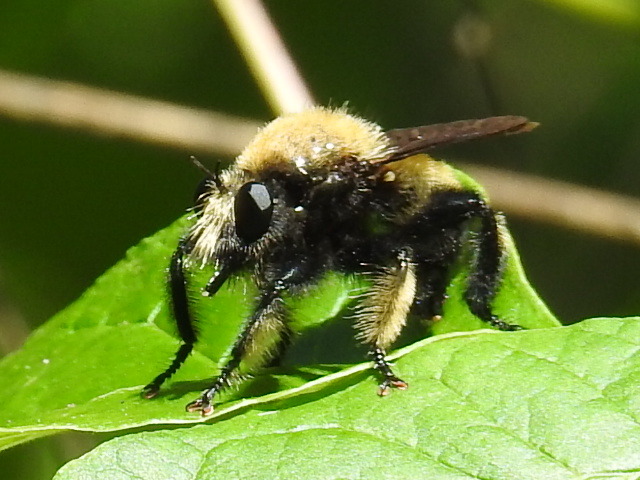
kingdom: Animalia
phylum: Arthropoda
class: Insecta
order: Diptera
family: Asilidae
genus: Laphria
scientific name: Laphria macquarti
